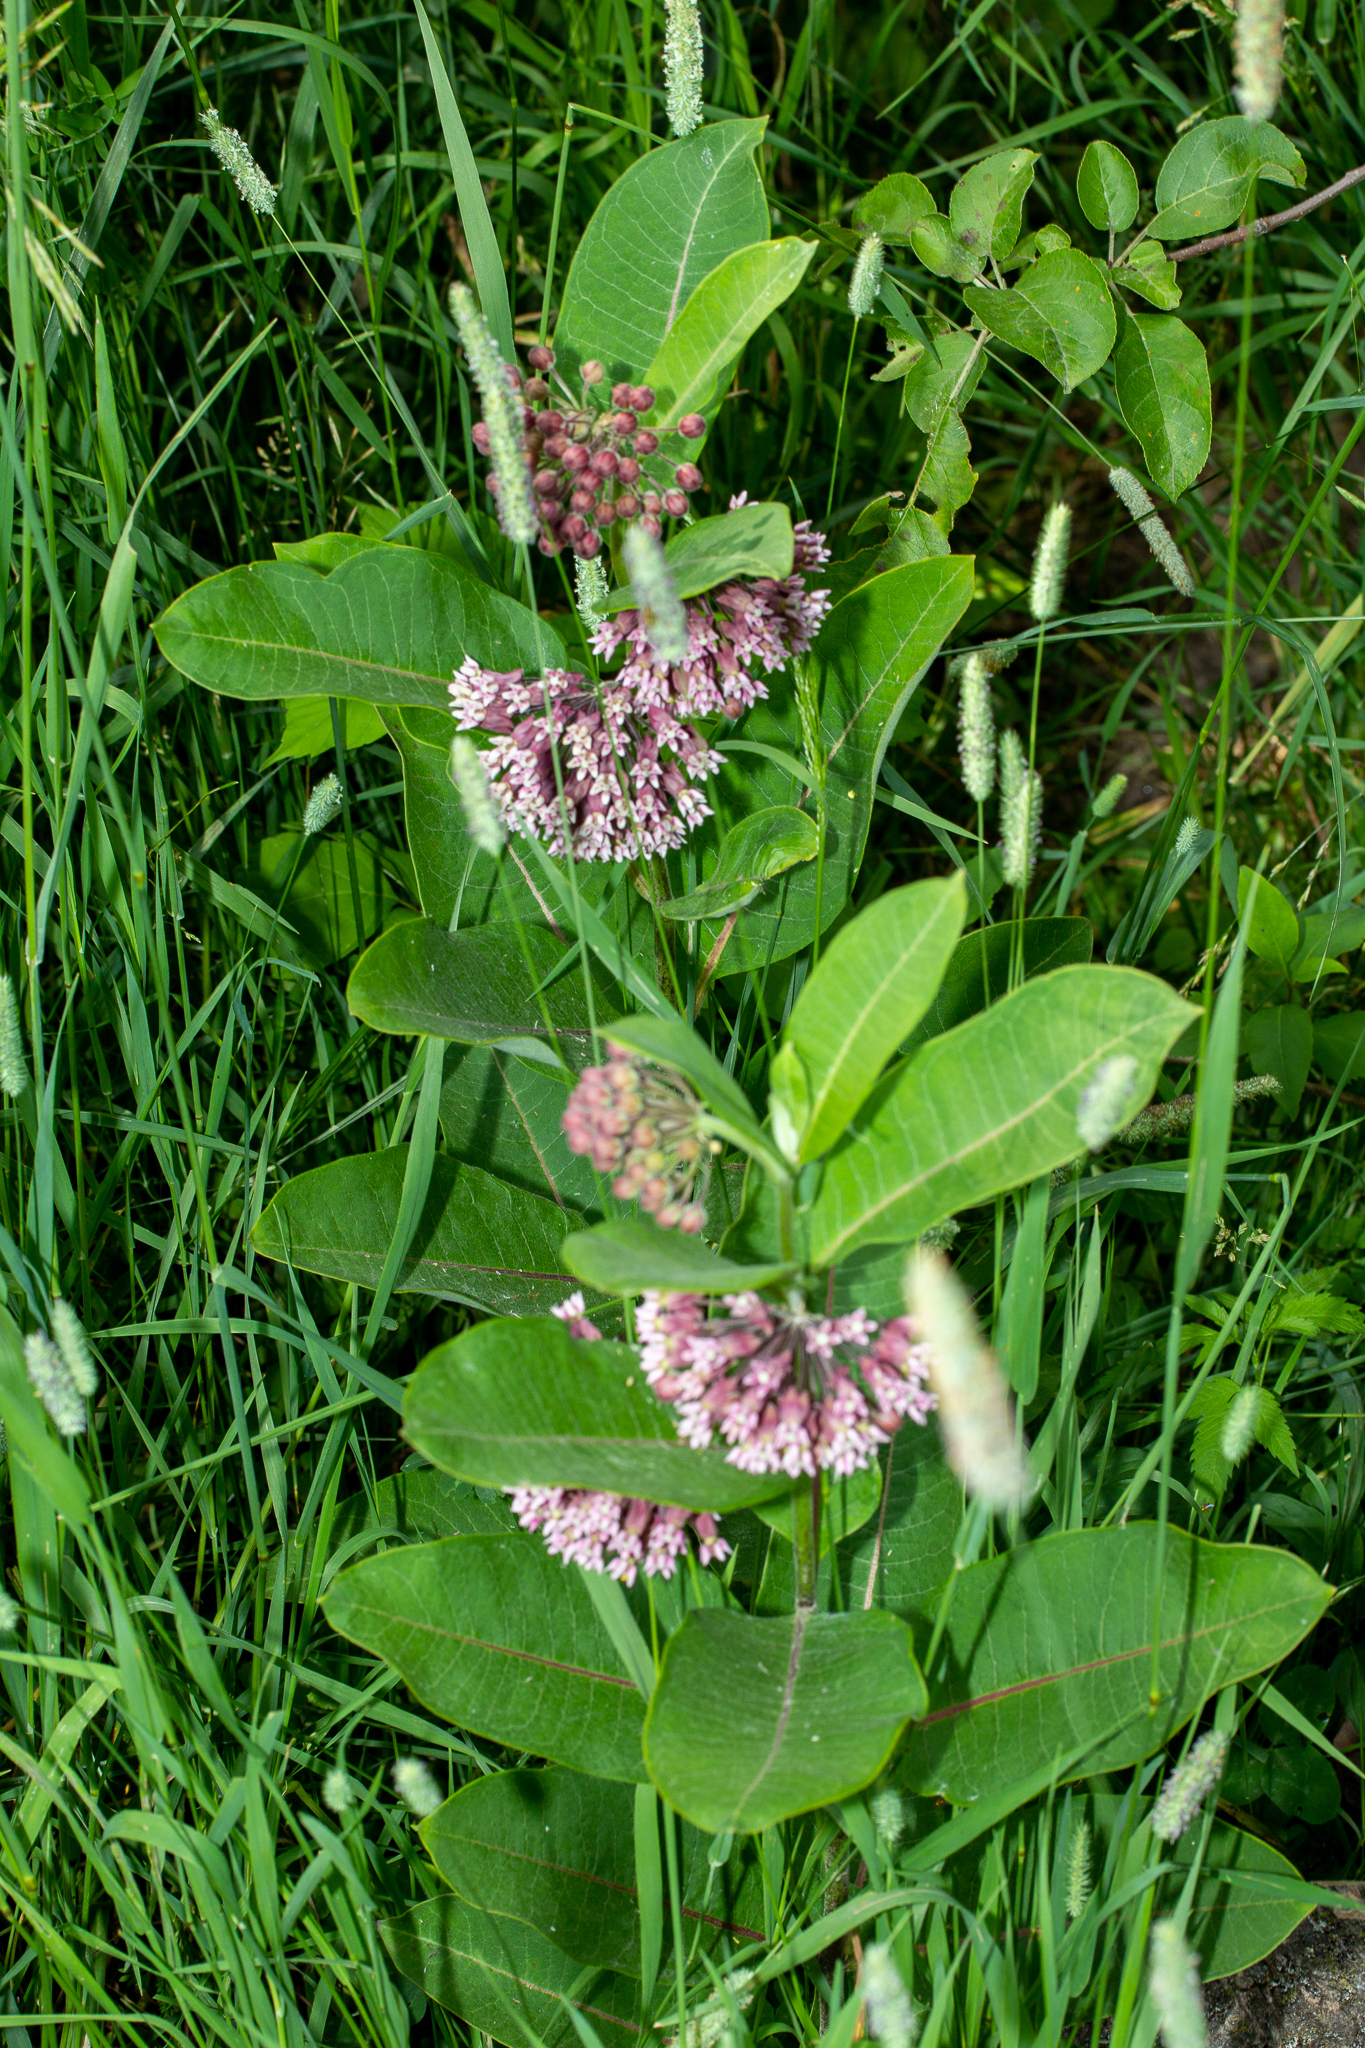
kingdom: Plantae
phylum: Tracheophyta
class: Magnoliopsida
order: Gentianales
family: Apocynaceae
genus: Asclepias
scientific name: Asclepias syriaca
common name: Common milkweed
